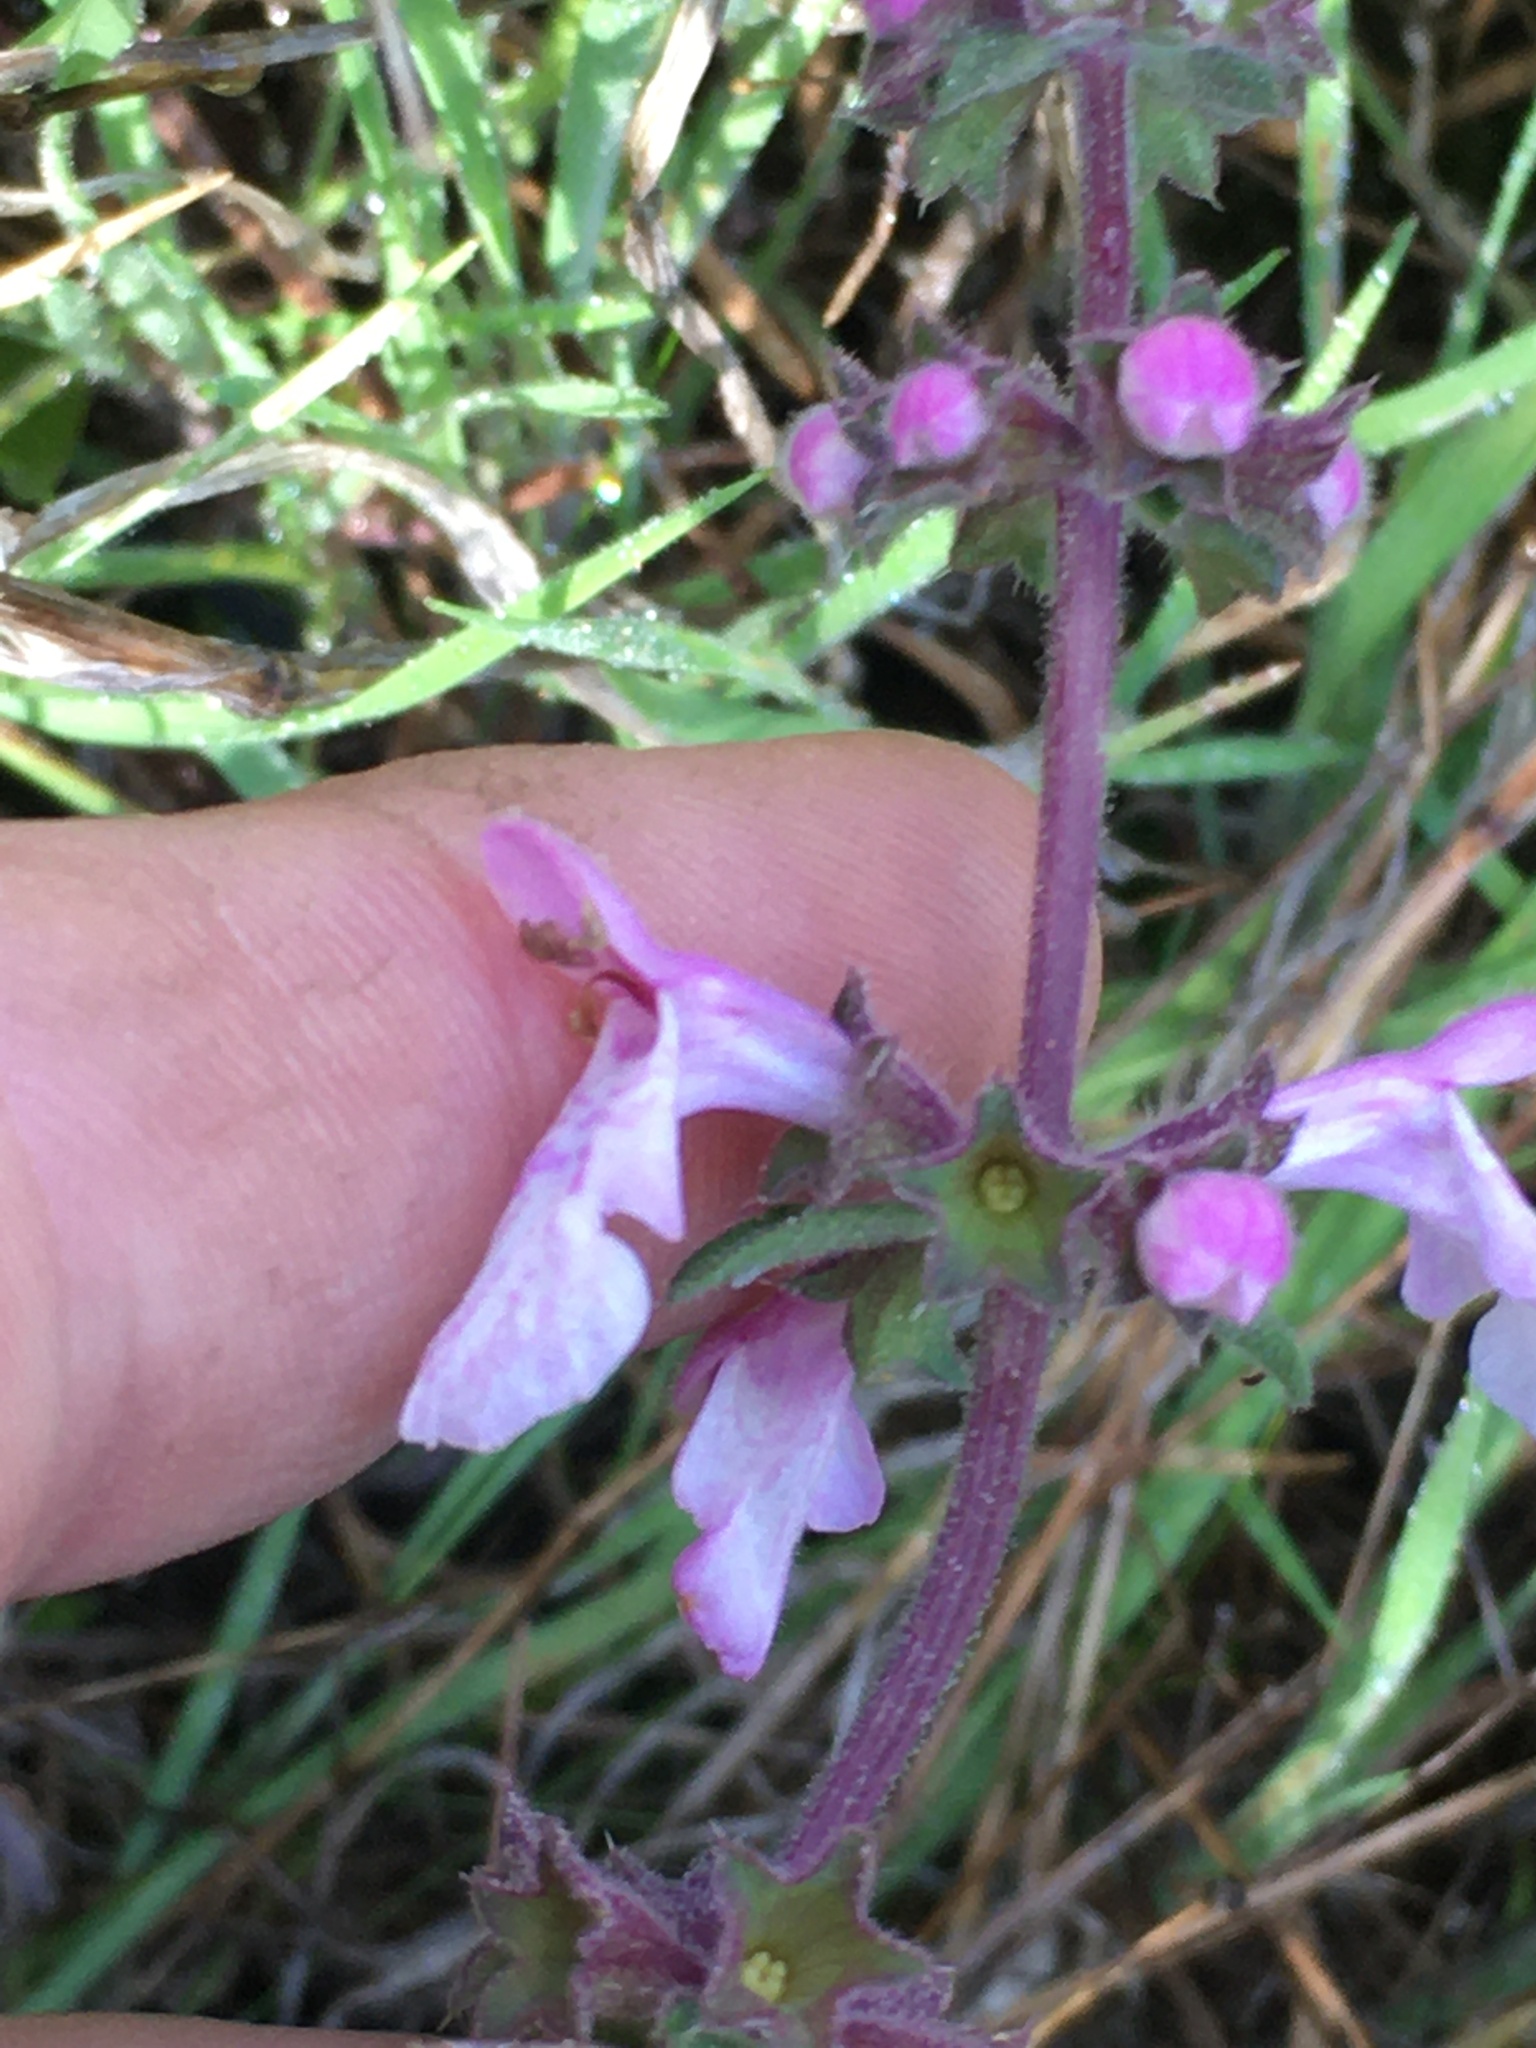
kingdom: Plantae
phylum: Tracheophyta
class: Magnoliopsida
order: Lamiales
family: Lamiaceae
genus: Stachys
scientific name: Stachys bullata
